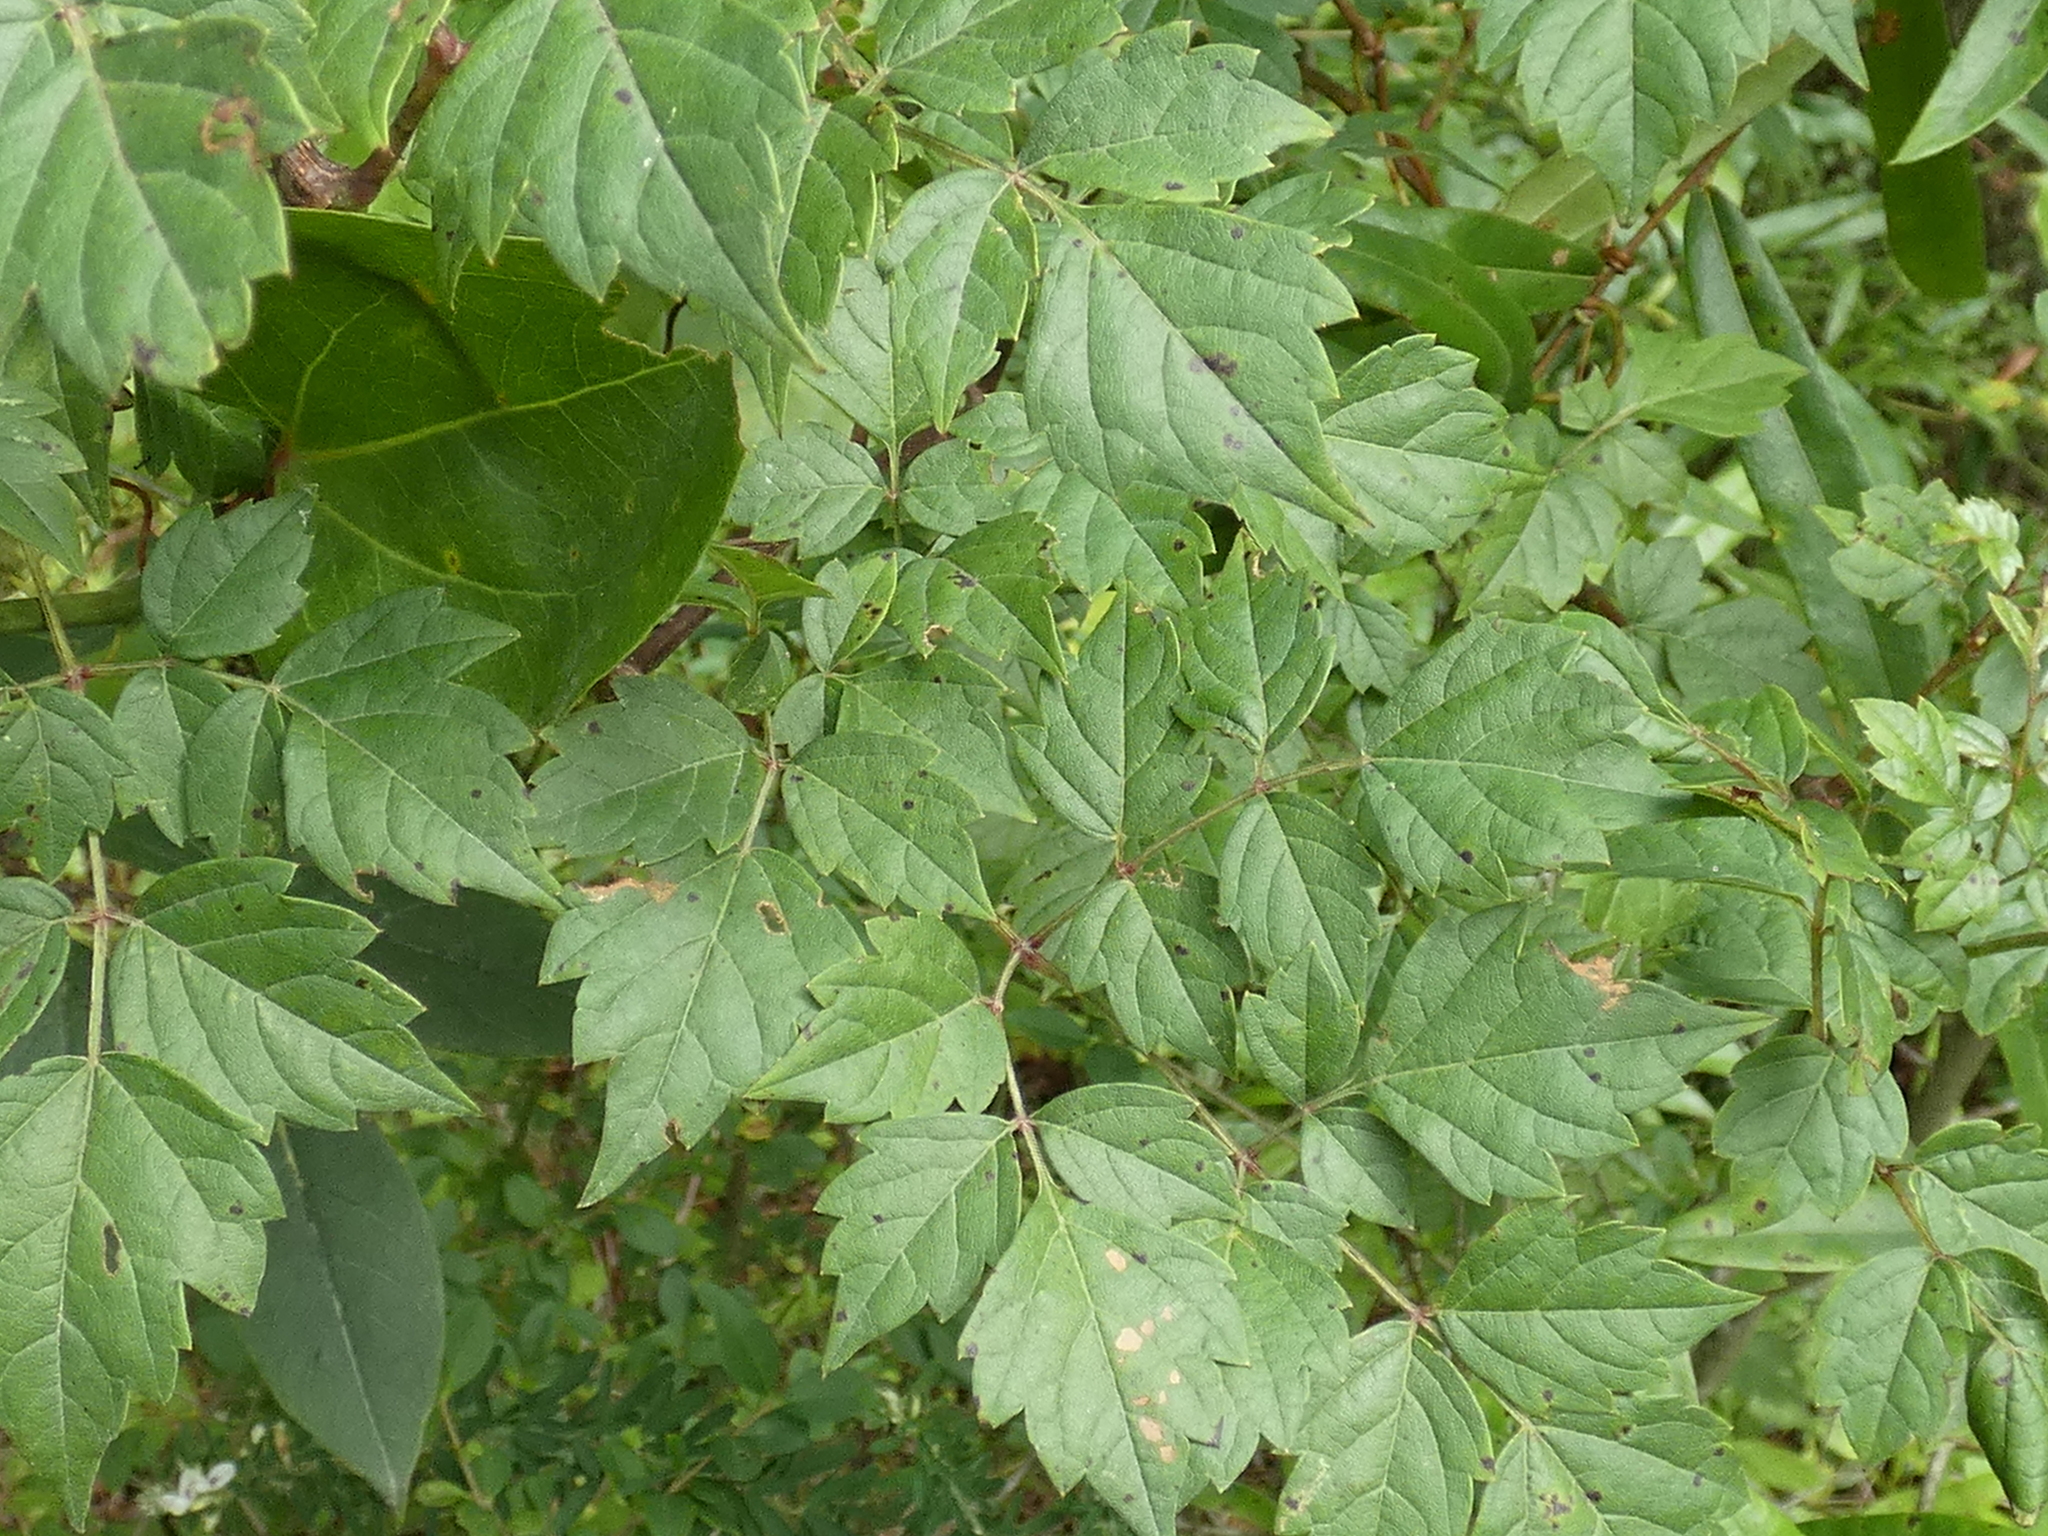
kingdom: Plantae
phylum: Tracheophyta
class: Magnoliopsida
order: Vitales
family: Vitaceae
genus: Nekemias
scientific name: Nekemias arborea
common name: Peppervine
